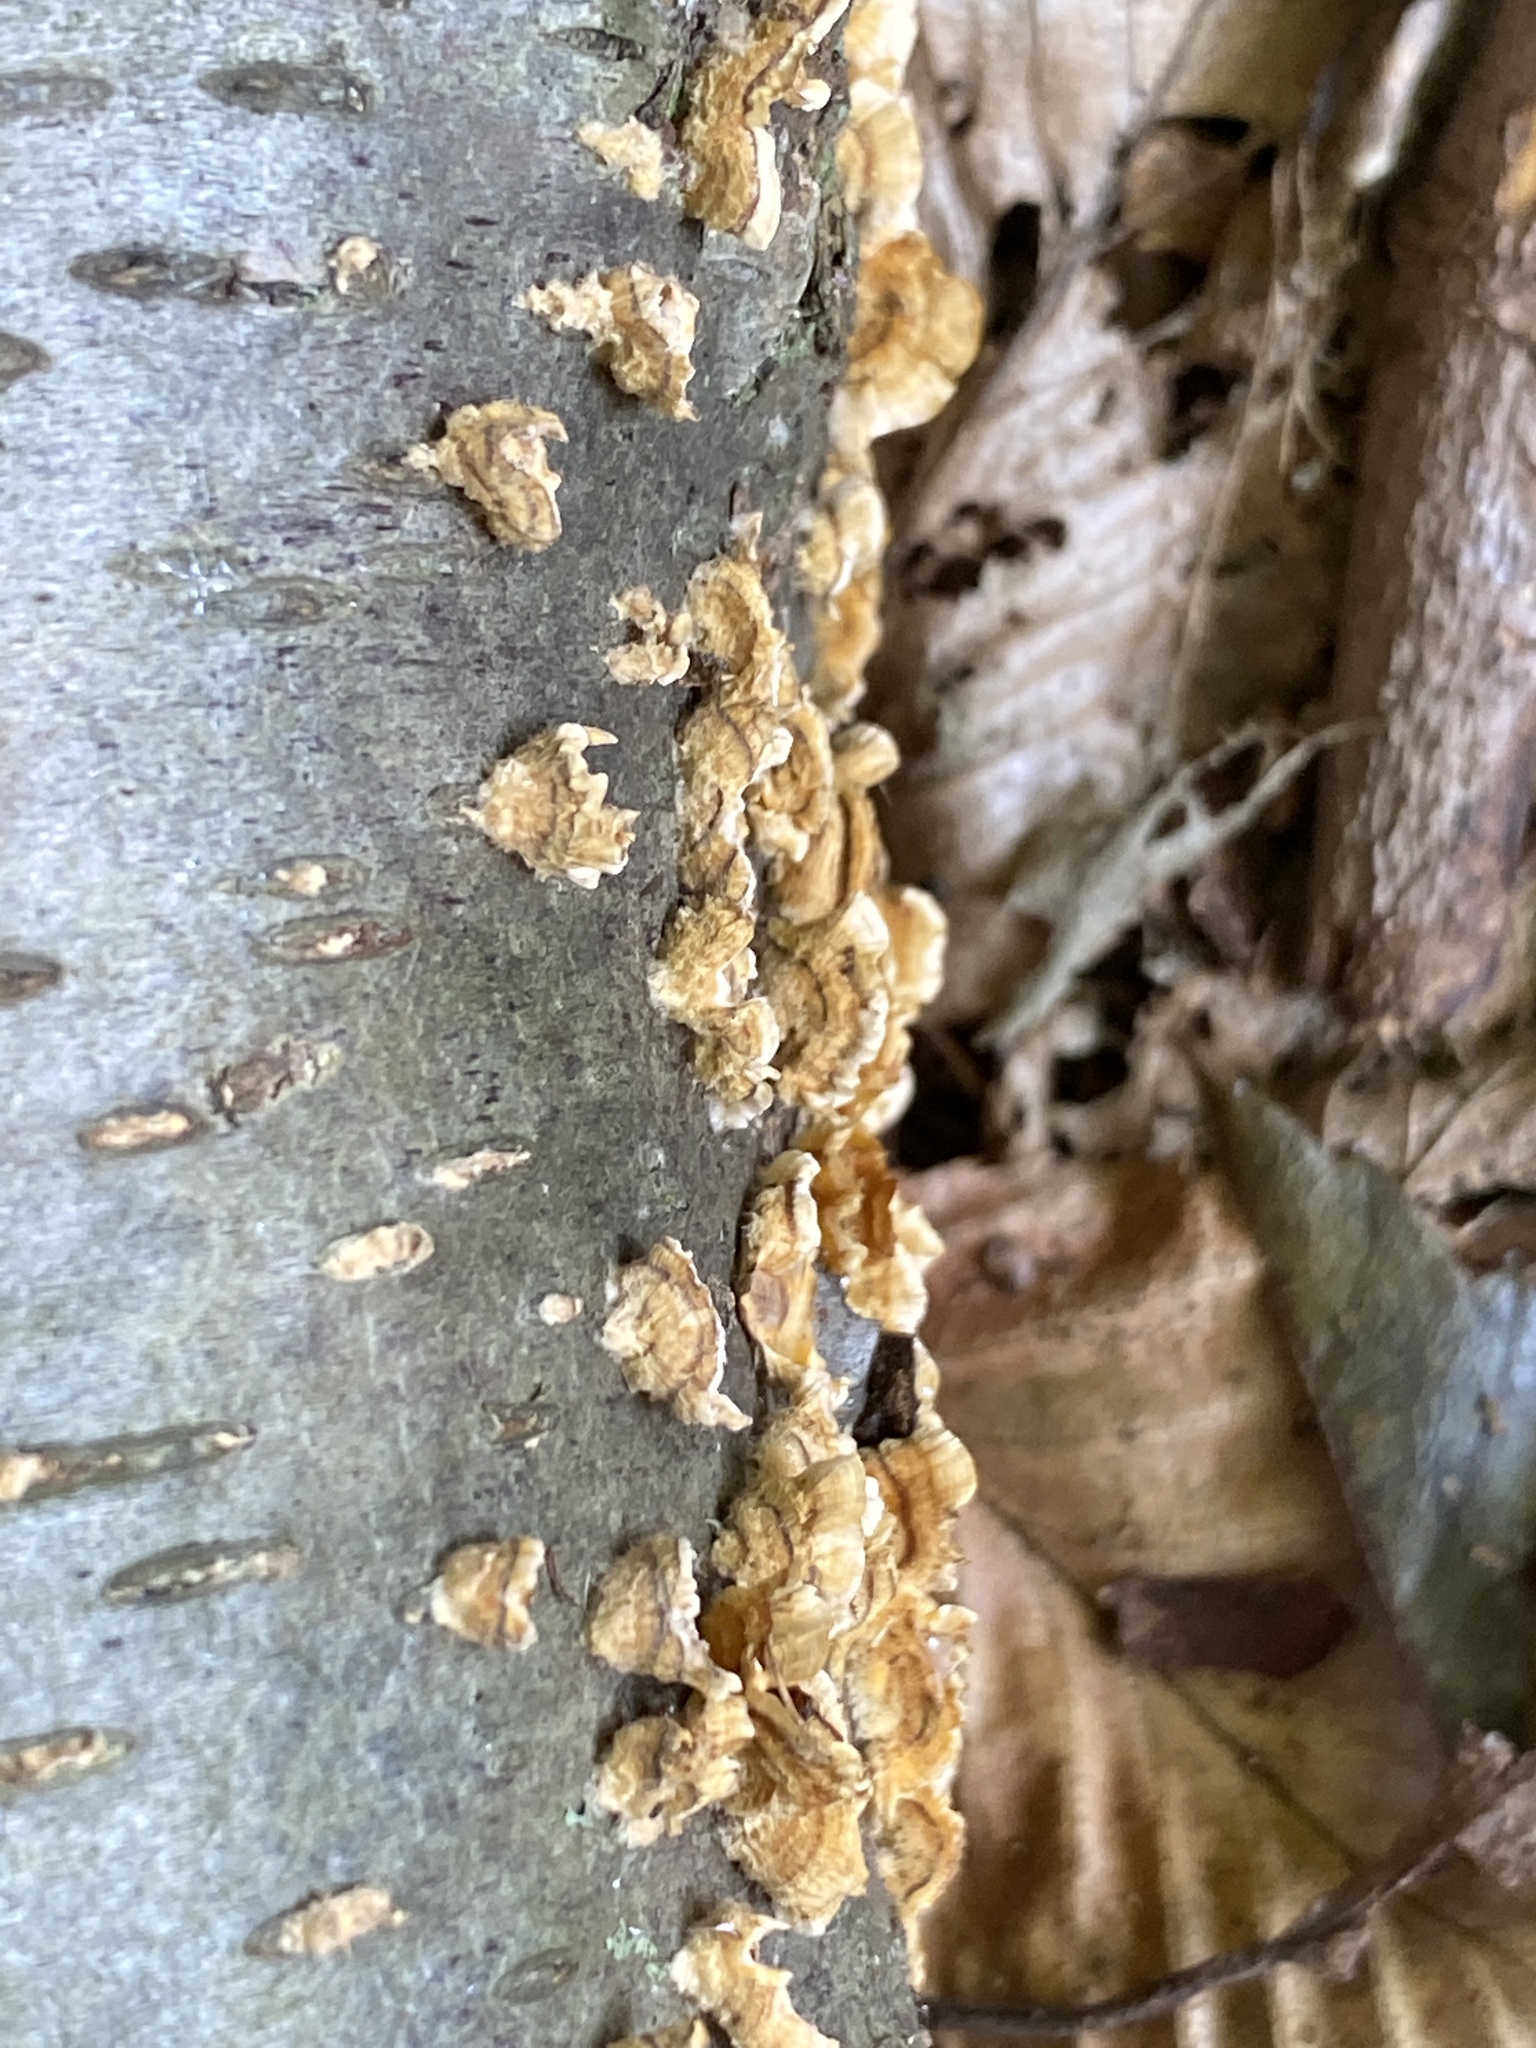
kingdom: Fungi
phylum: Basidiomycota
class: Agaricomycetes
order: Russulales
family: Stereaceae
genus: Stereum
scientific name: Stereum complicatum
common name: Crowded parchment
